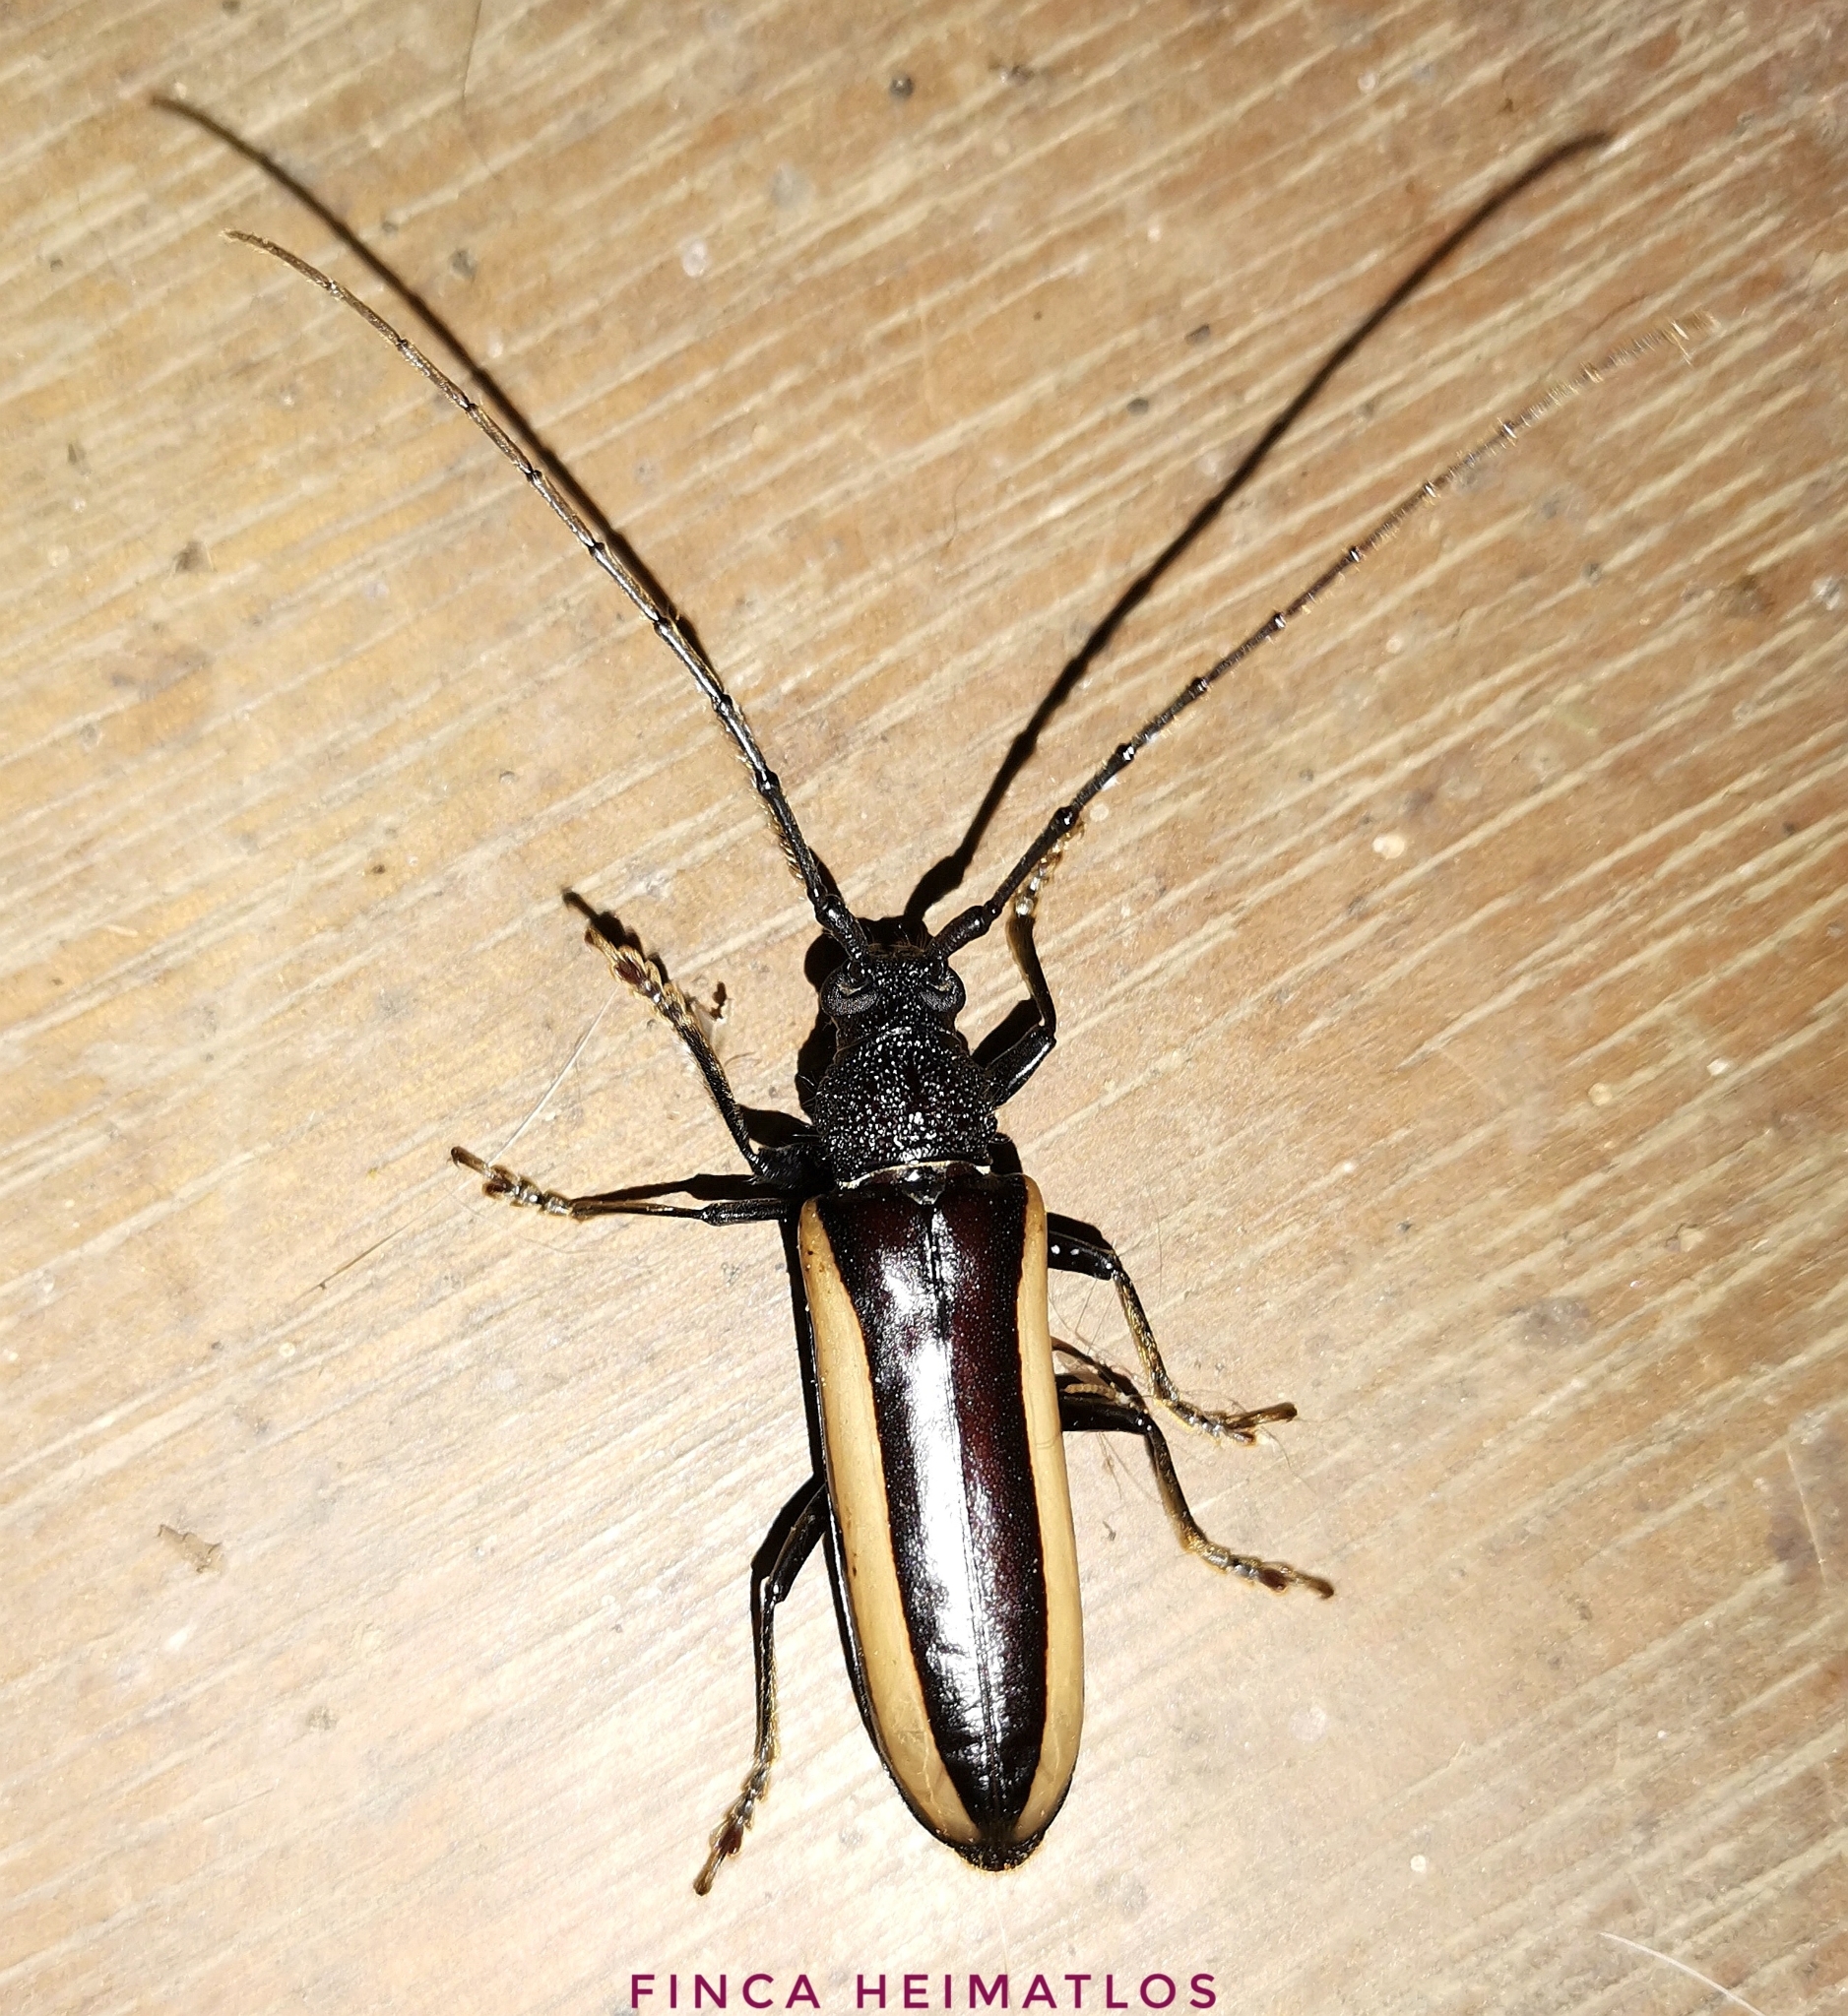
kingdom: Animalia
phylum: Arthropoda
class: Insecta
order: Coleoptera
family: Cerambycidae
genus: Poeciloxestia
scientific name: Poeciloxestia lateralis
